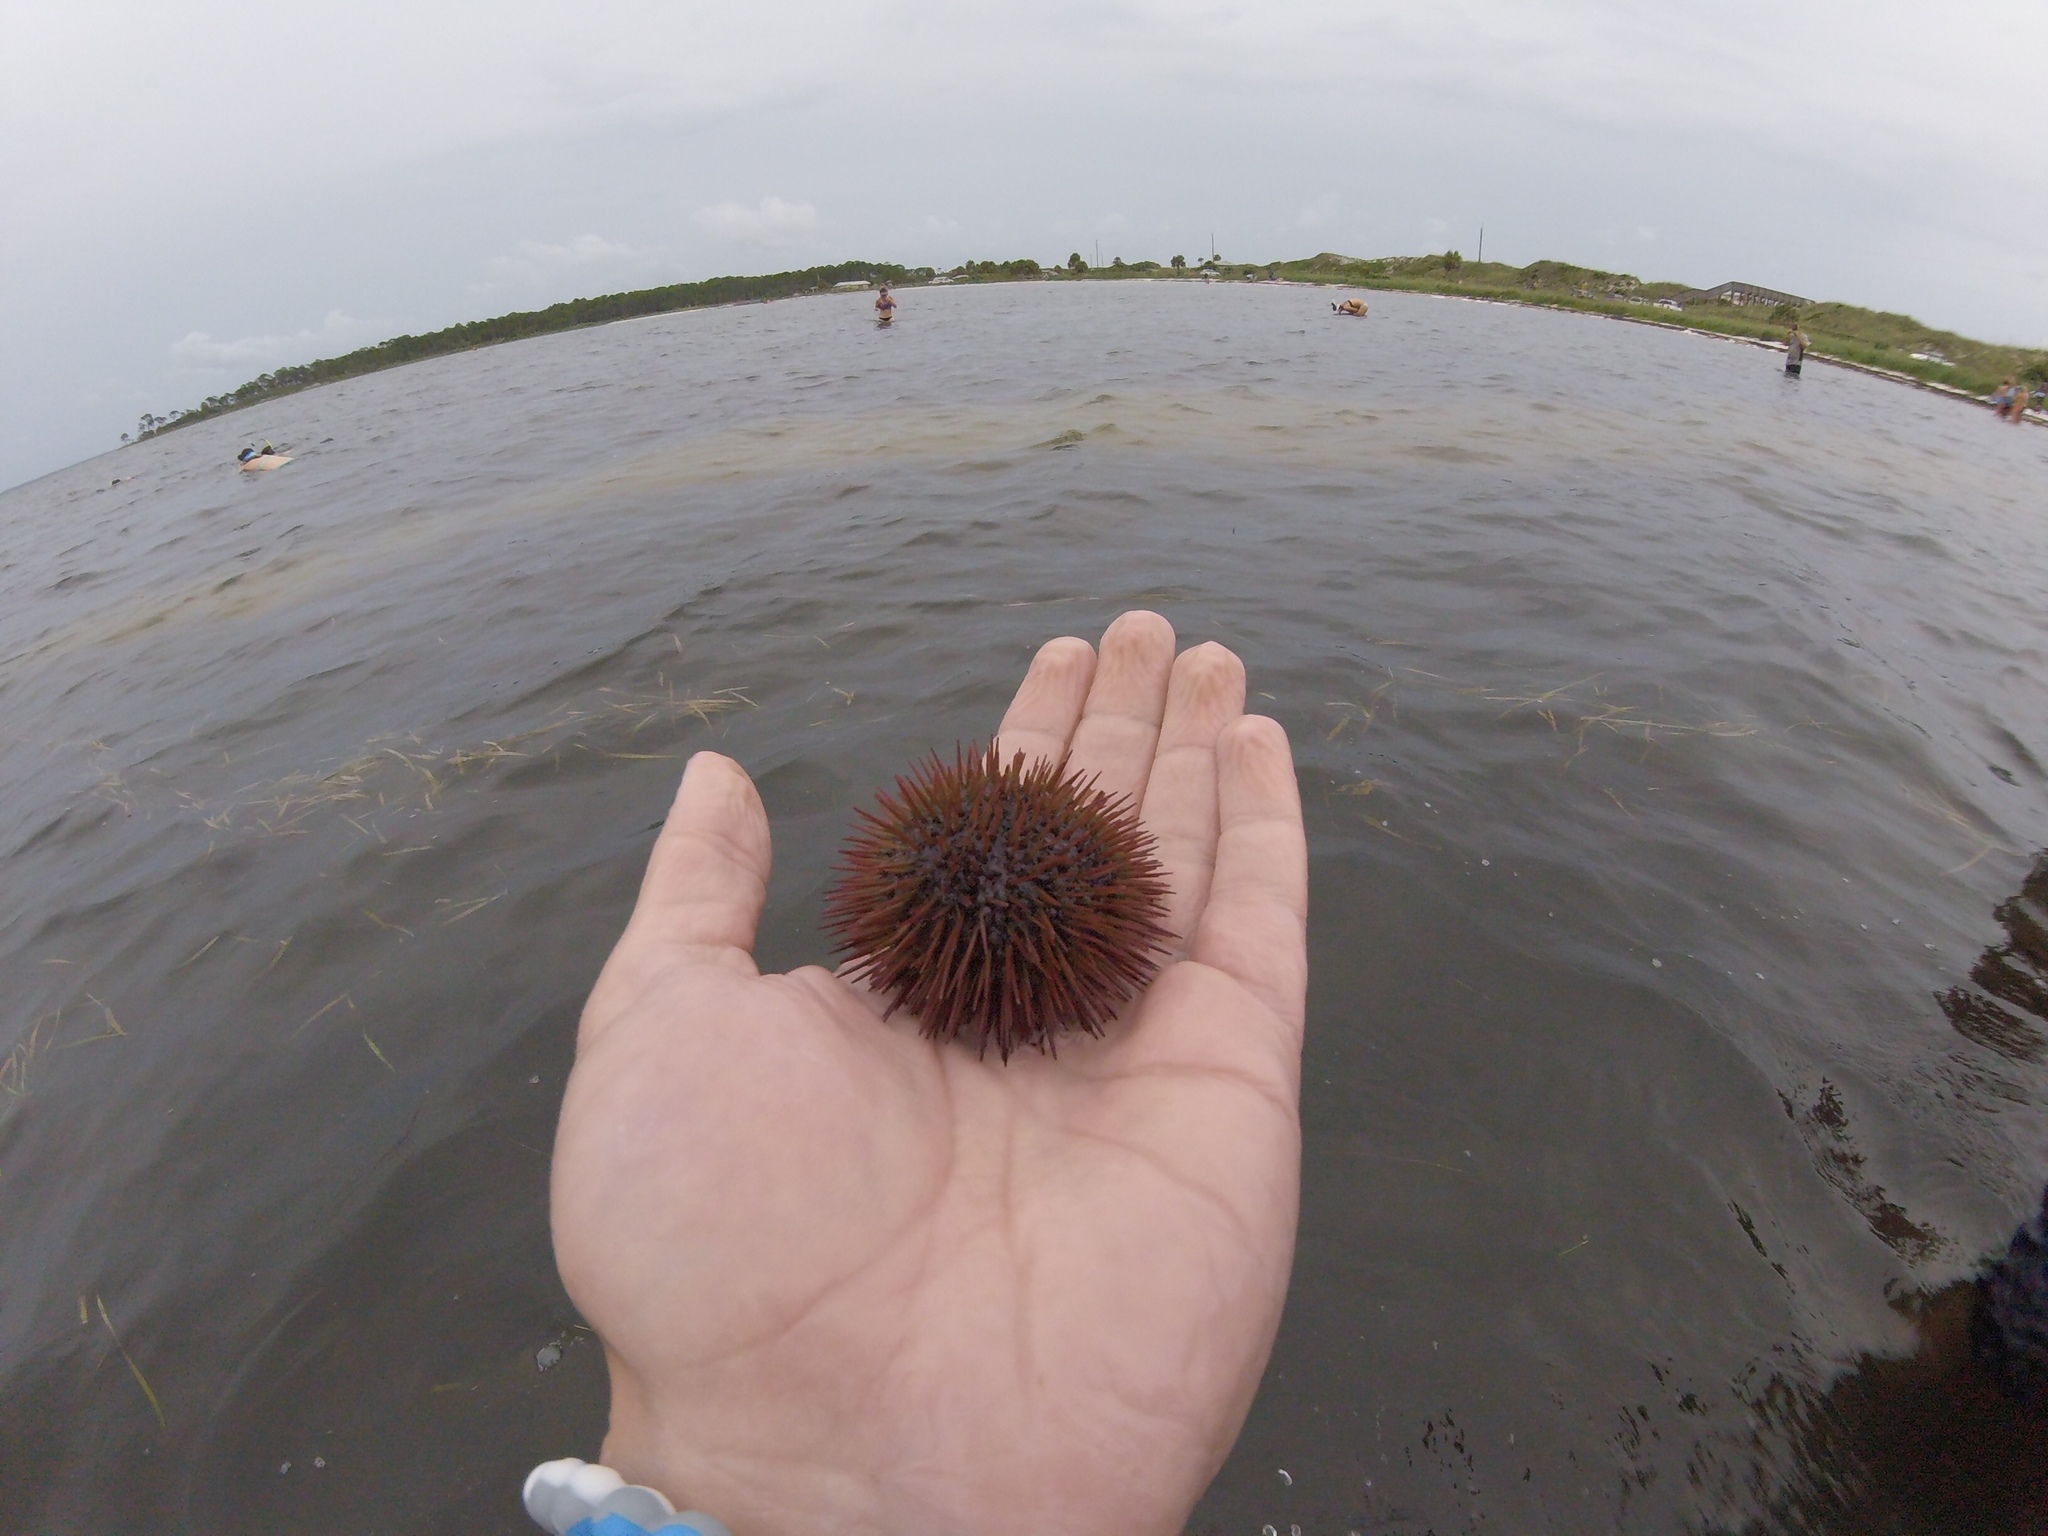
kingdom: Animalia
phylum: Echinodermata
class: Echinoidea
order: Camarodonta
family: Toxopneustidae
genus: Lytechinus
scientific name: Lytechinus variegatus
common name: Variegated urchin
